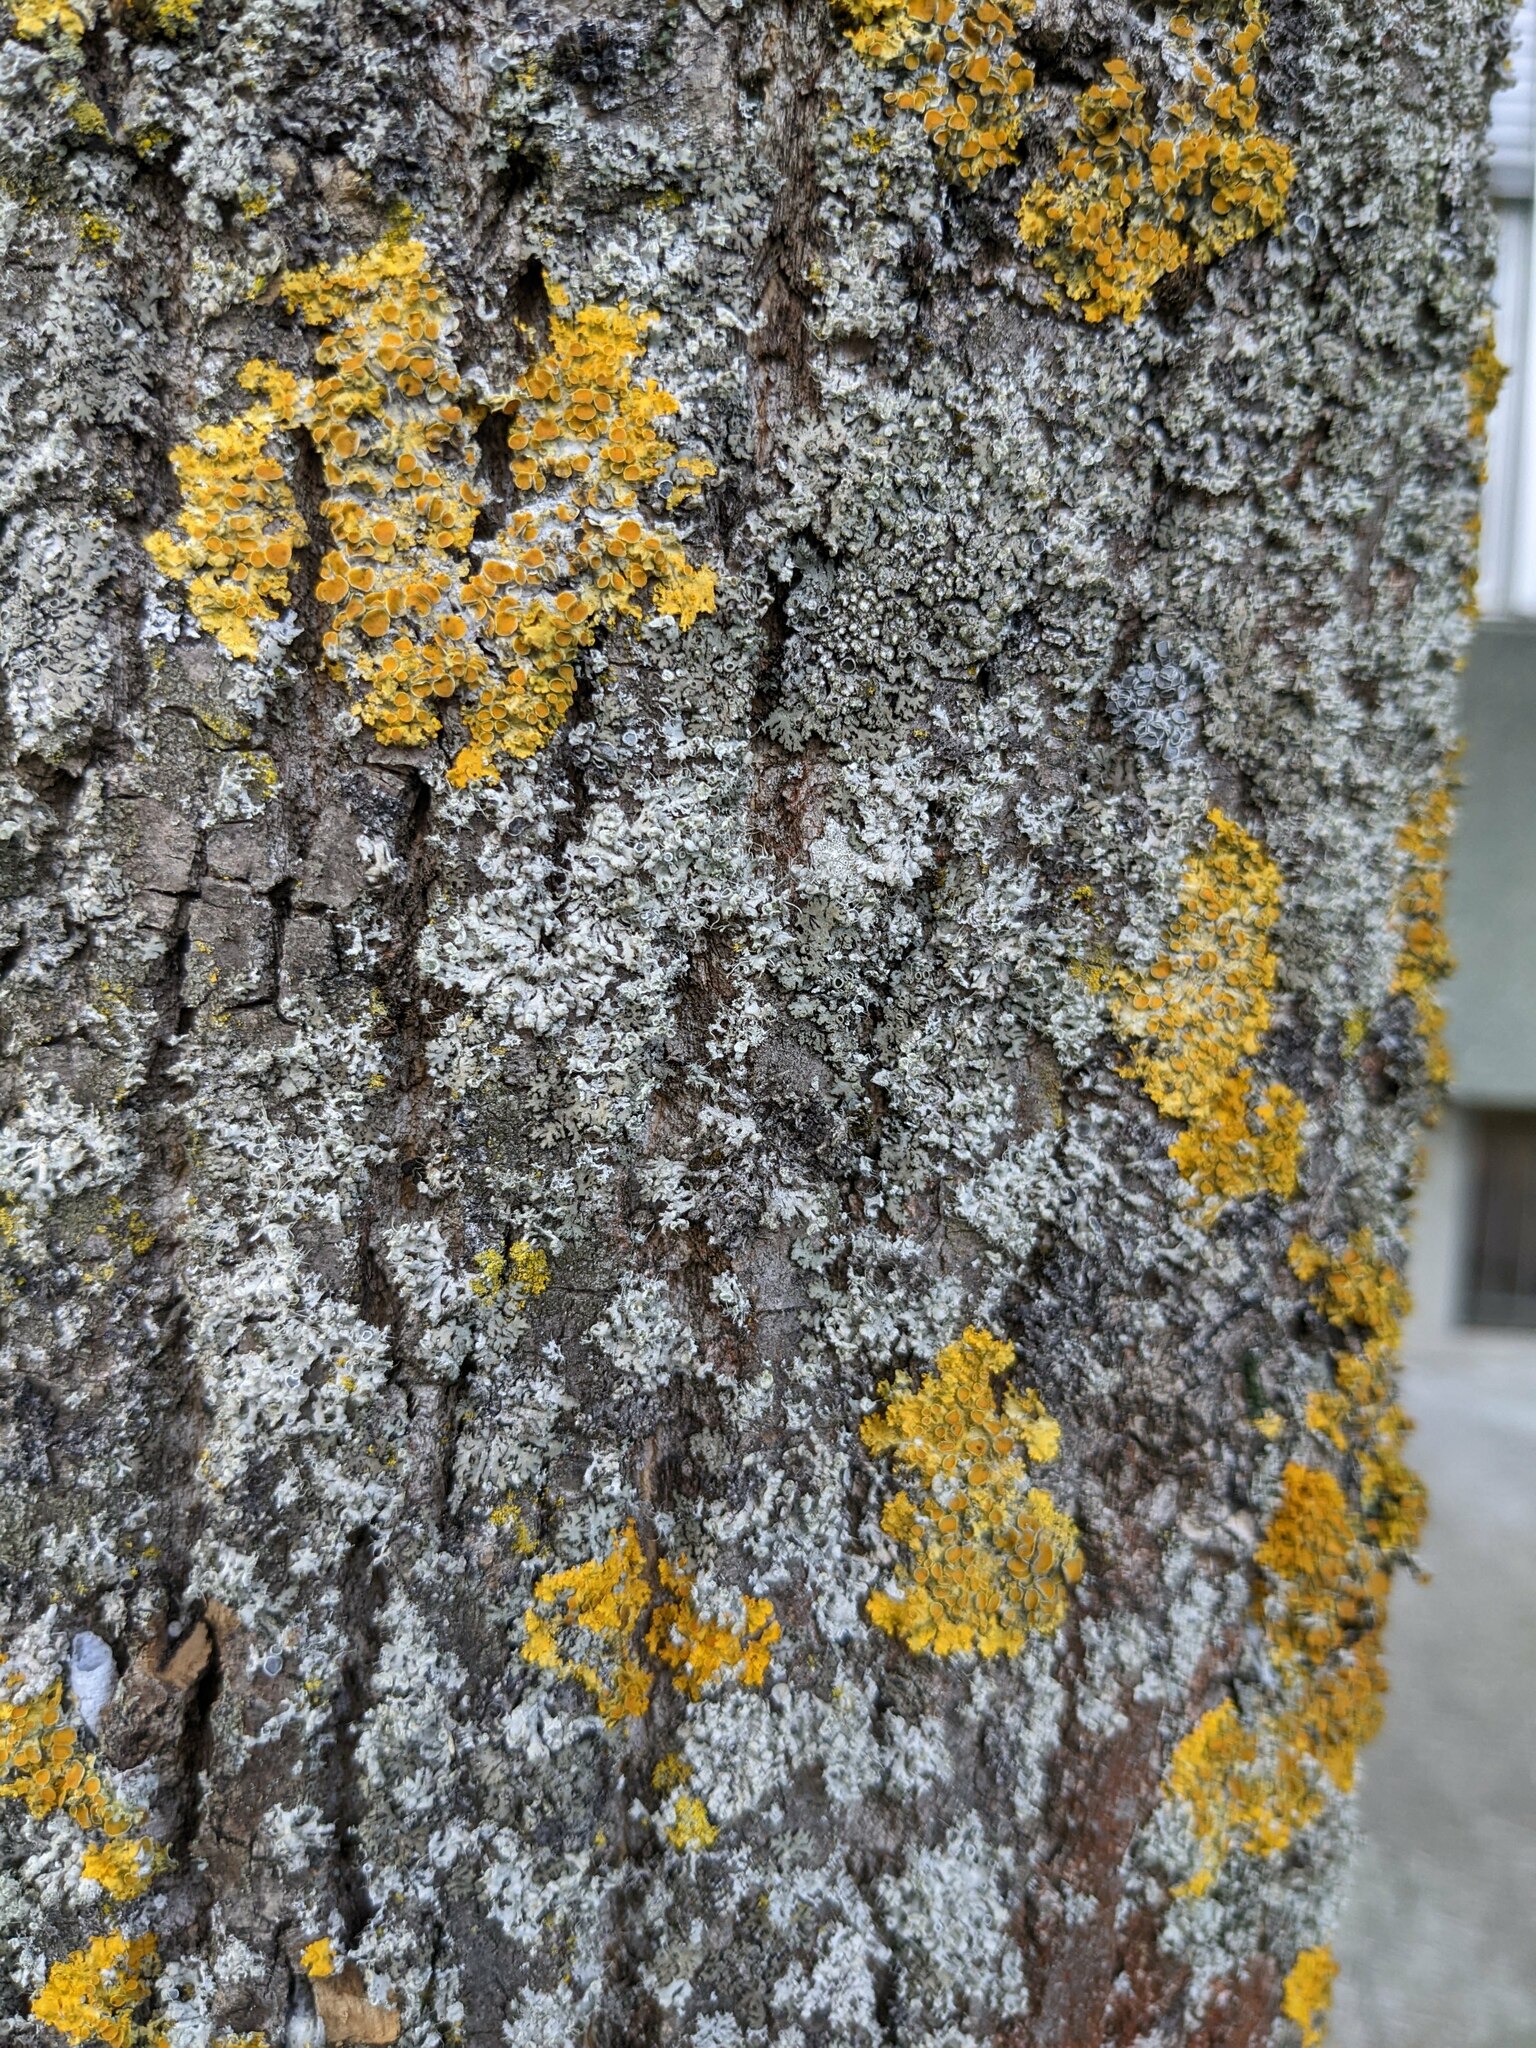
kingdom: Fungi
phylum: Ascomycota
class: Lecanoromycetes
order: Caliciales
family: Physciaceae
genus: Physcia
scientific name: Physcia adscendens
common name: Hooded rosette lichen
